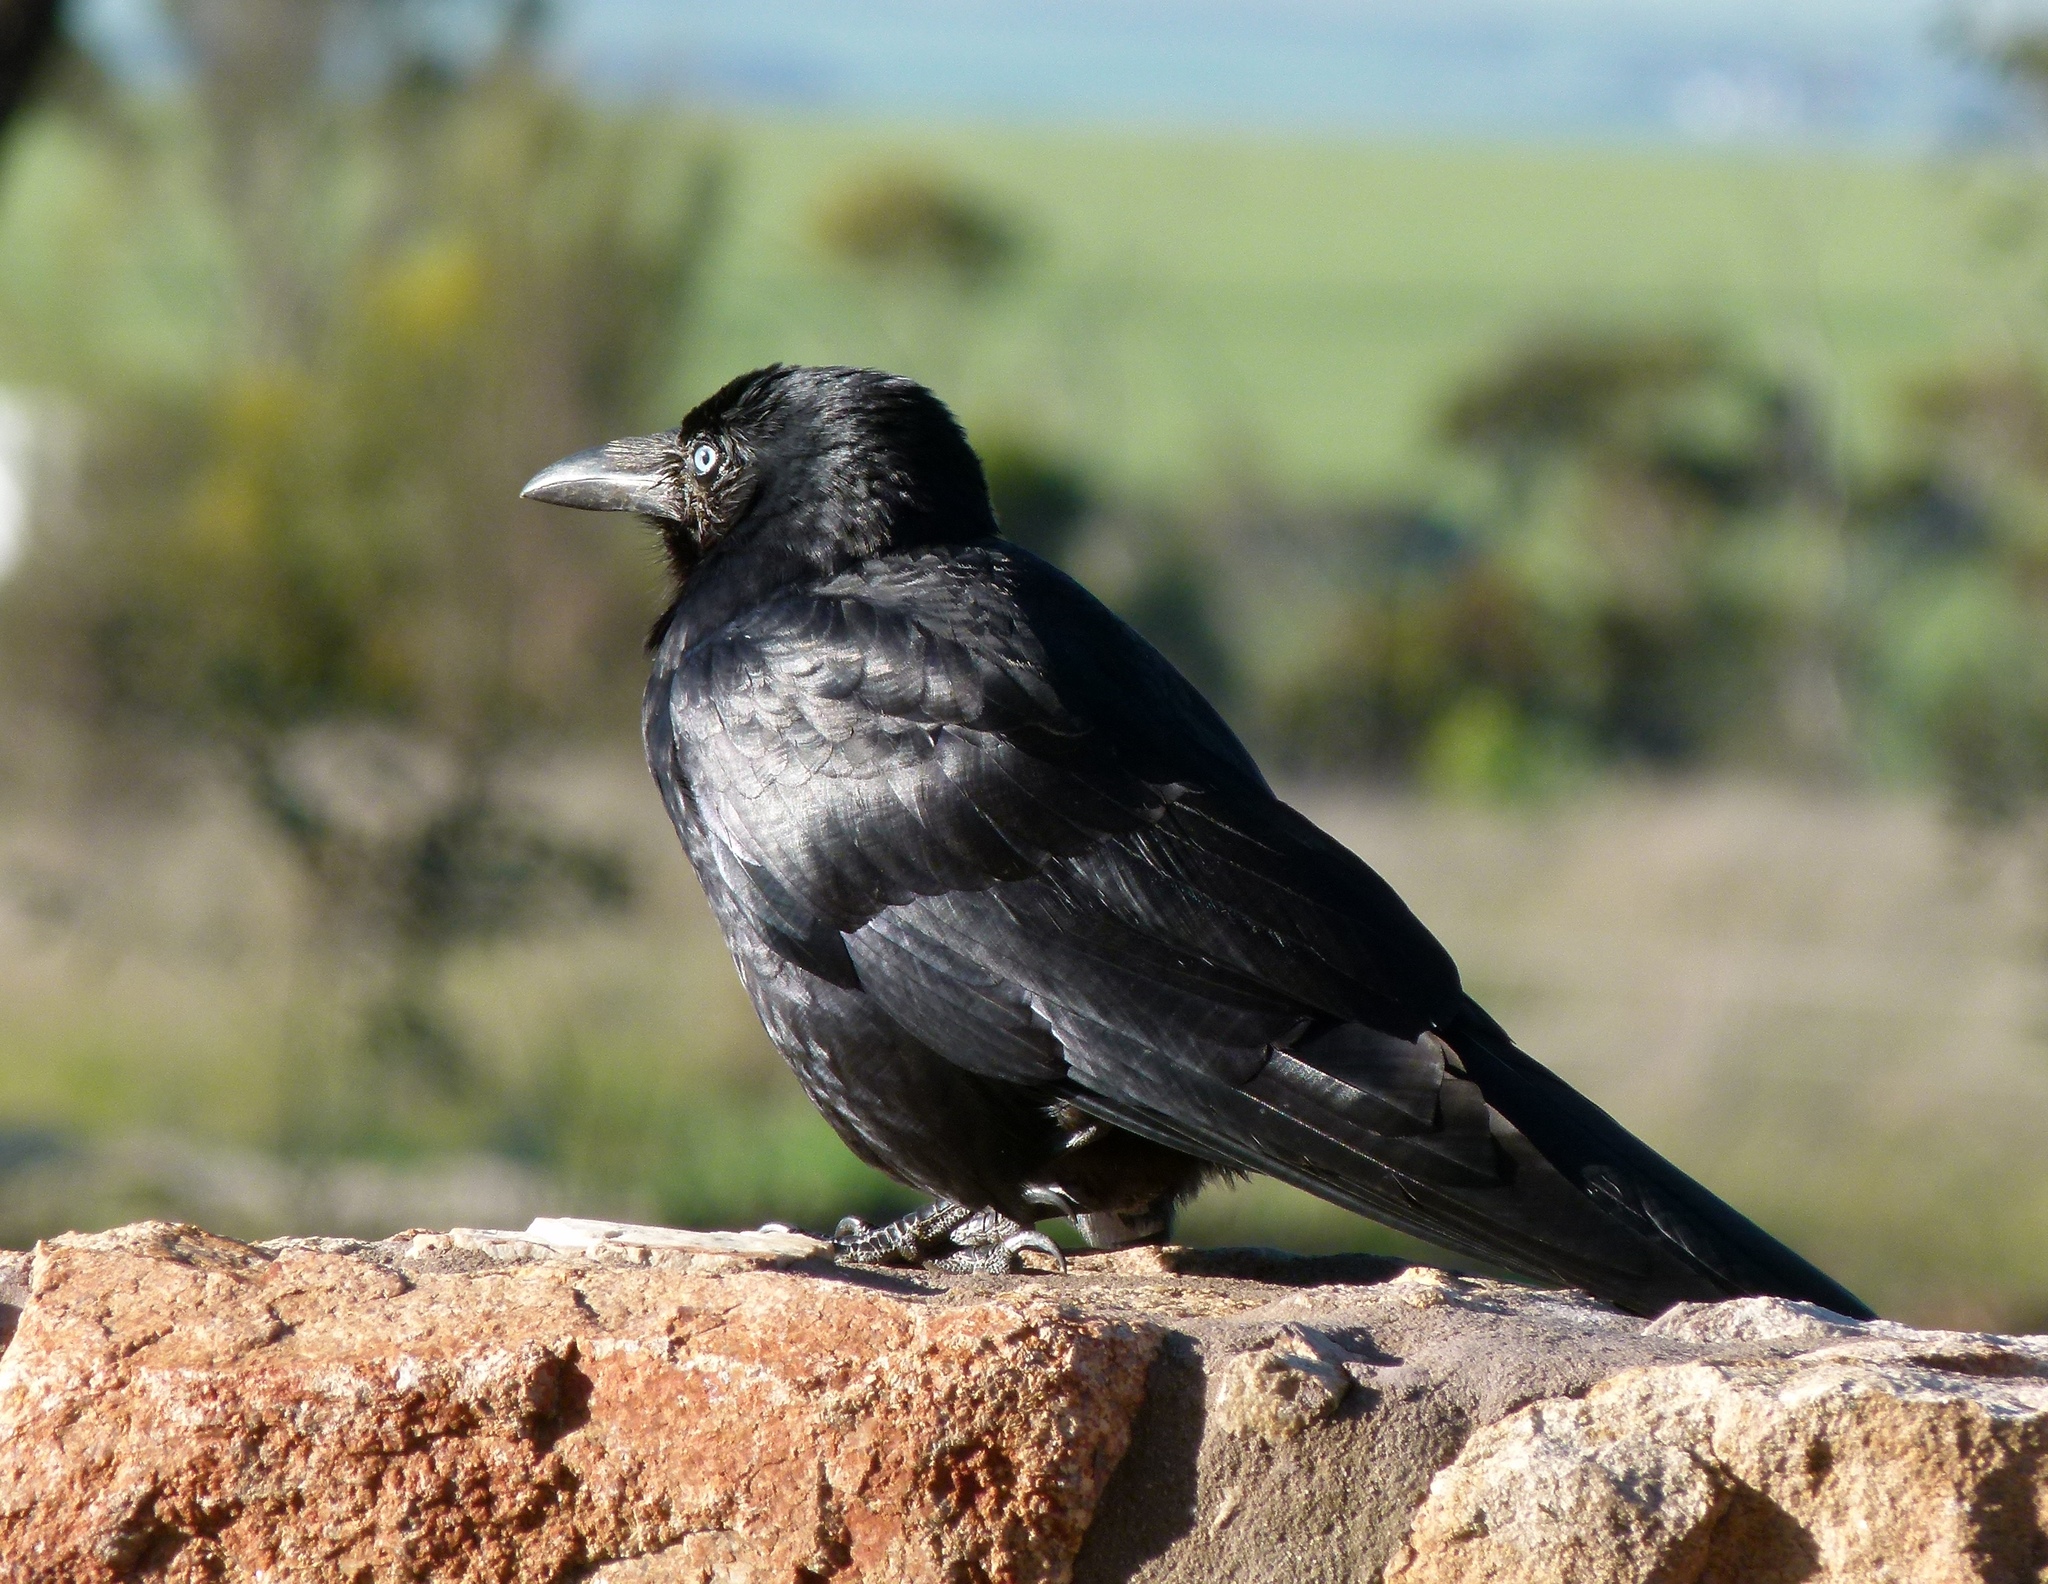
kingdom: Animalia
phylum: Chordata
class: Aves
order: Passeriformes
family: Corvidae
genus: Corvus
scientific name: Corvus coronoides
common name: Australian raven
